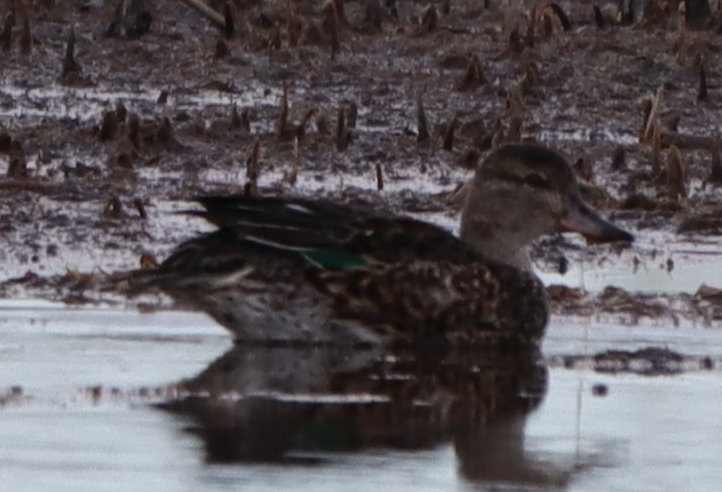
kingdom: Animalia
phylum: Chordata
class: Aves
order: Anseriformes
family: Anatidae
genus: Anas
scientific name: Anas crecca
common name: Eurasian teal
